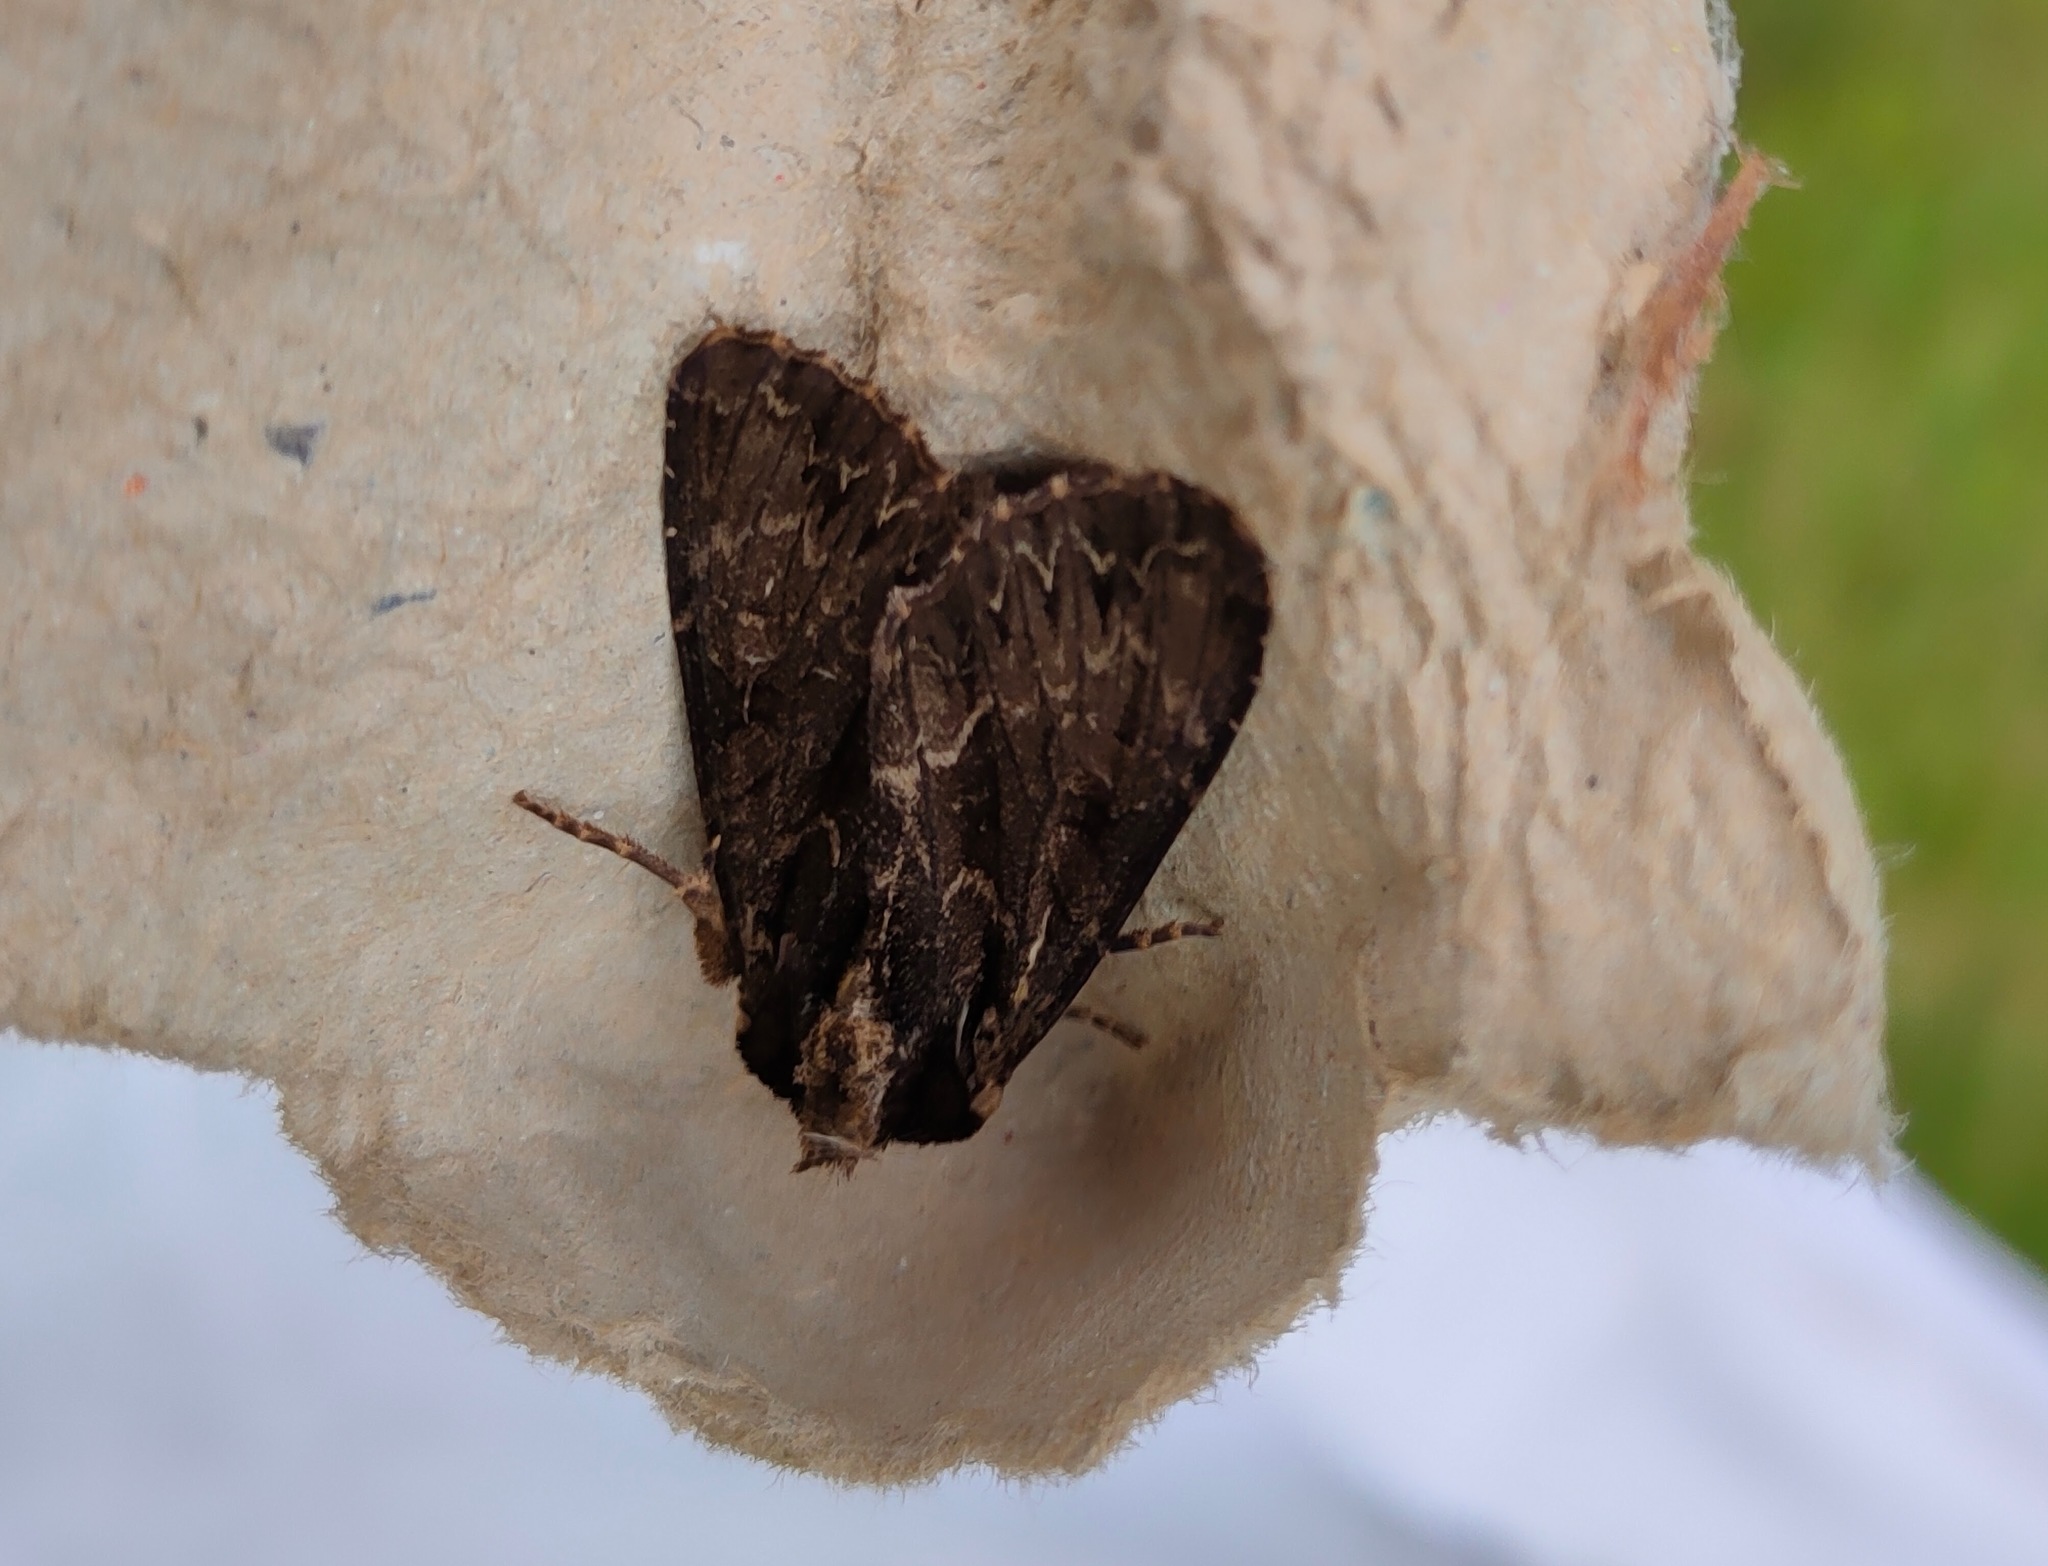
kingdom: Animalia
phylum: Arthropoda
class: Insecta
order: Lepidoptera
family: Noctuidae
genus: Apamea
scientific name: Apamea monoglypha
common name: Dark arches
